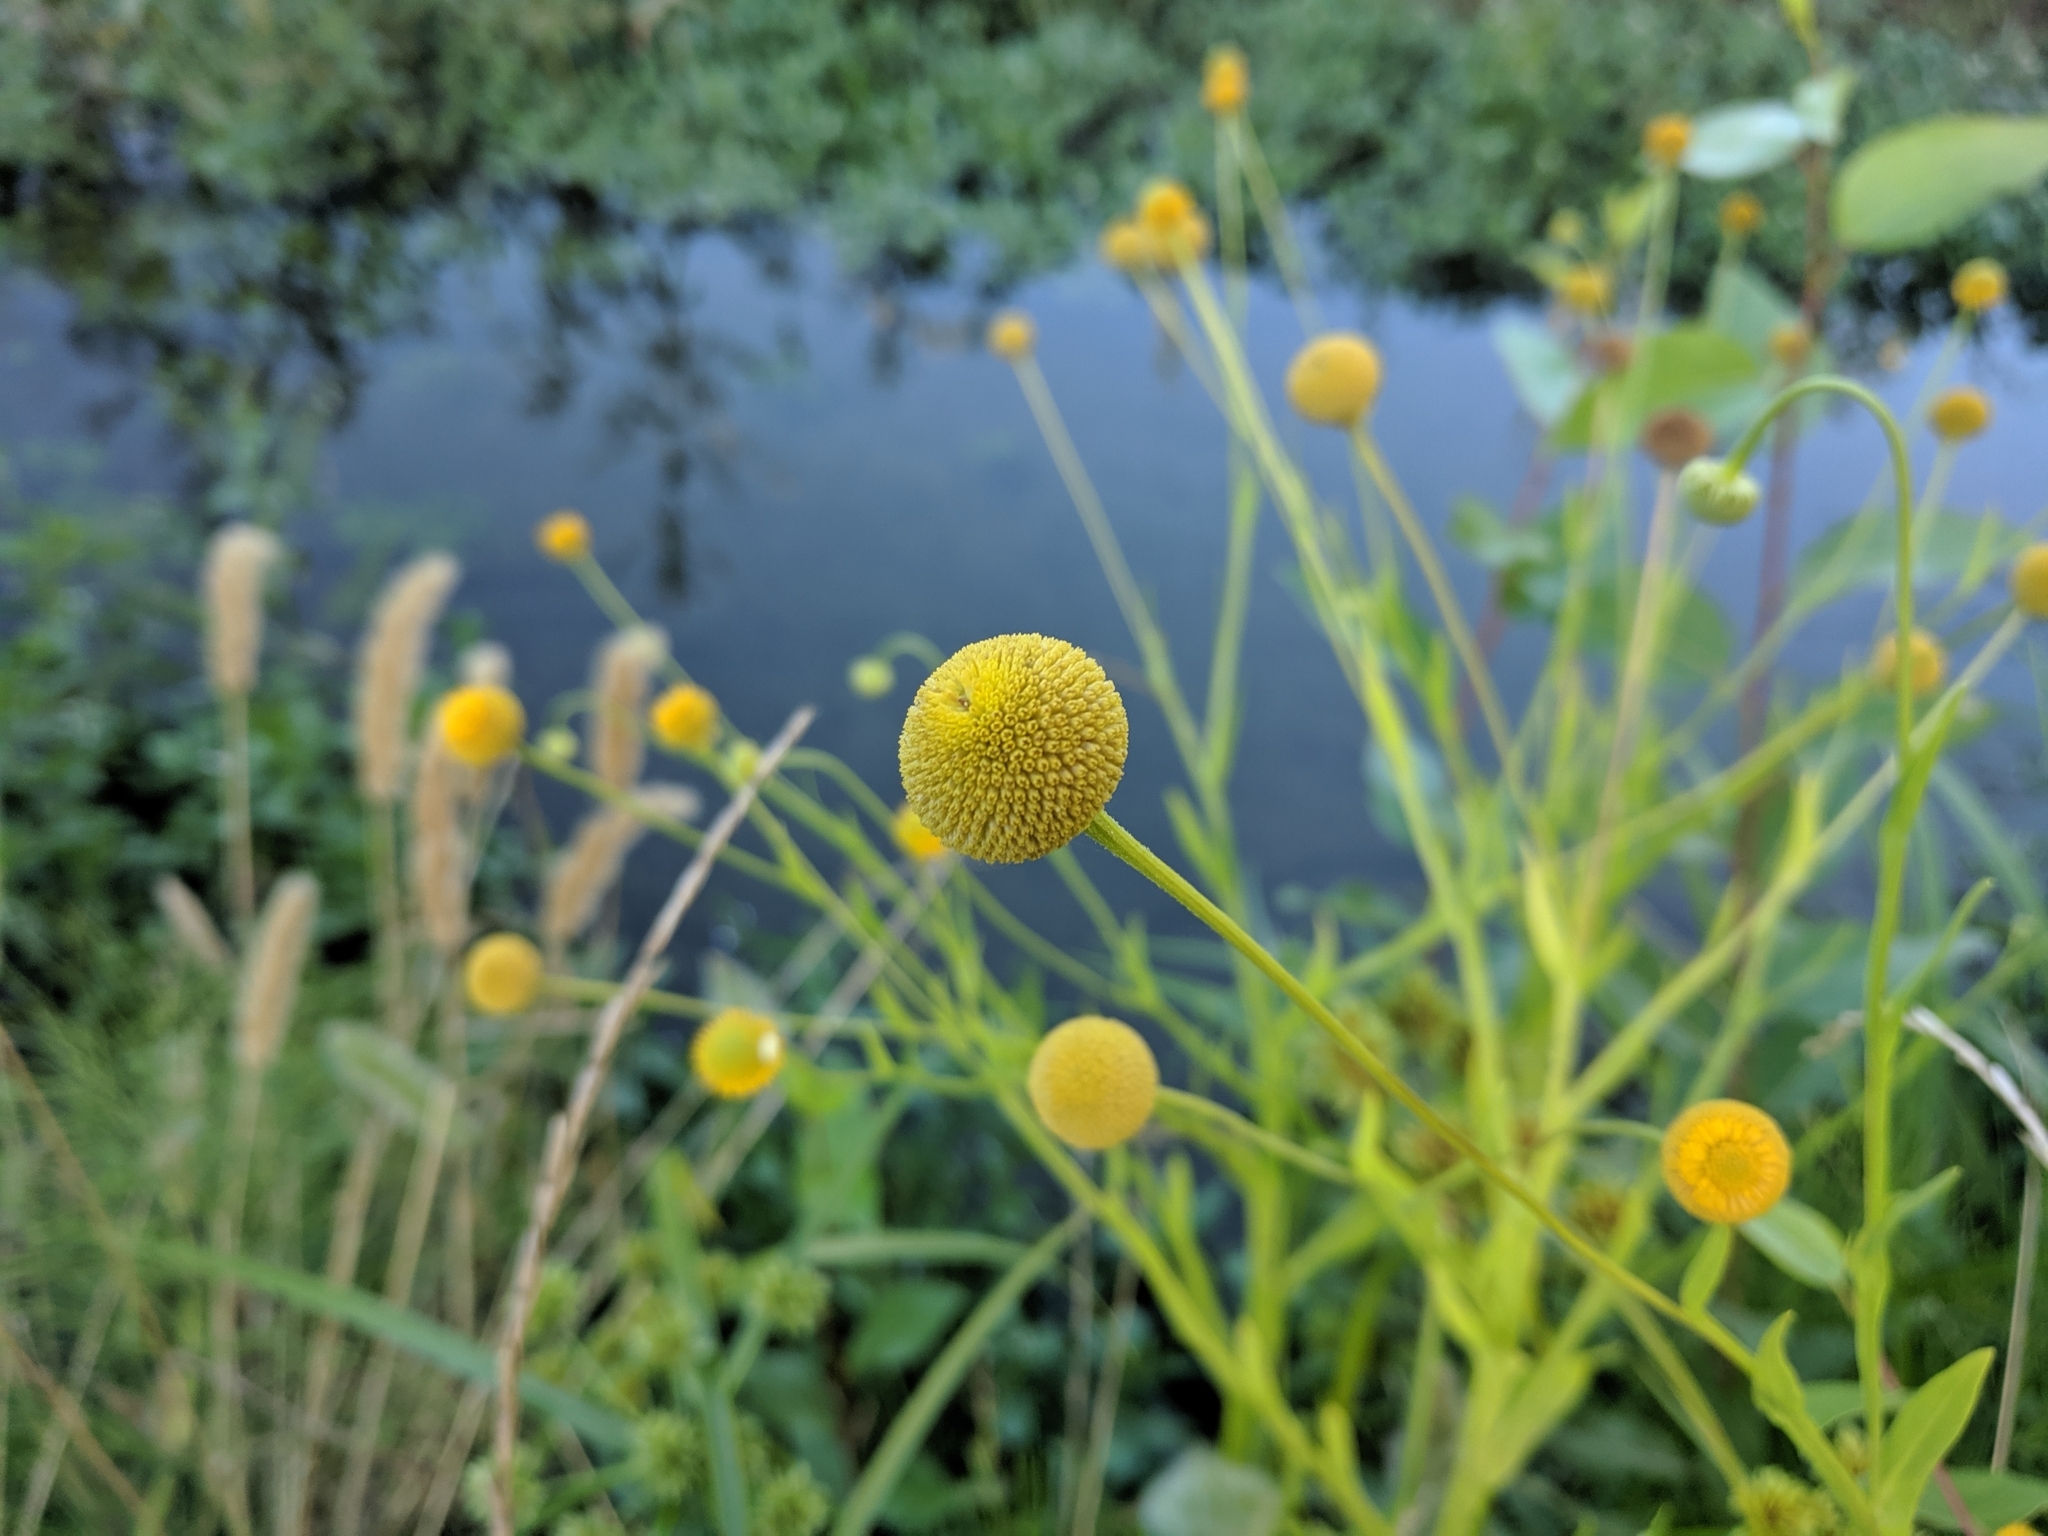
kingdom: Plantae
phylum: Tracheophyta
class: Magnoliopsida
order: Asterales
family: Asteraceae
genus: Cotula
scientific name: Cotula coronopifolia
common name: Buttonweed
